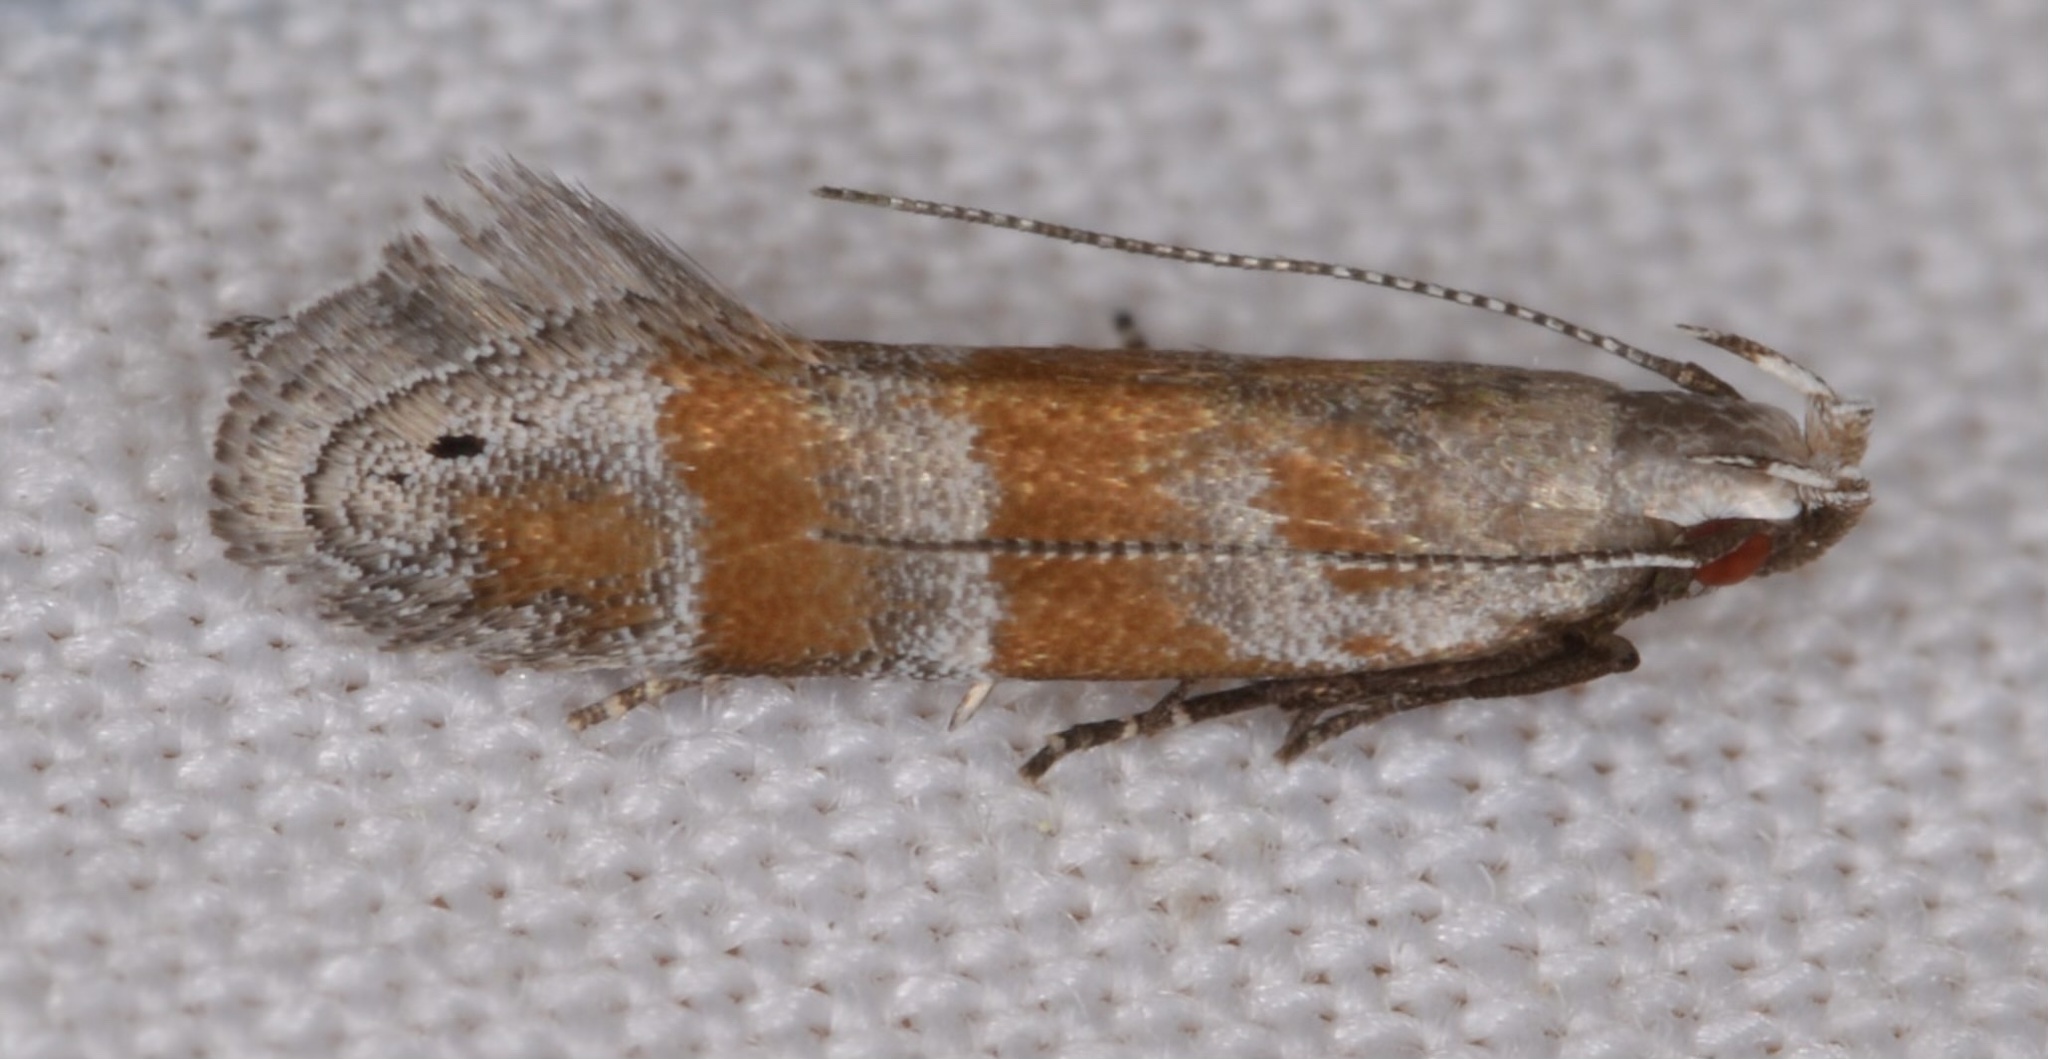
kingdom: Animalia
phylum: Arthropoda
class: Insecta
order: Lepidoptera
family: Gelechiidae
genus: Battaristis
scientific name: Battaristis vittella
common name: Orange stripe-backed moth
